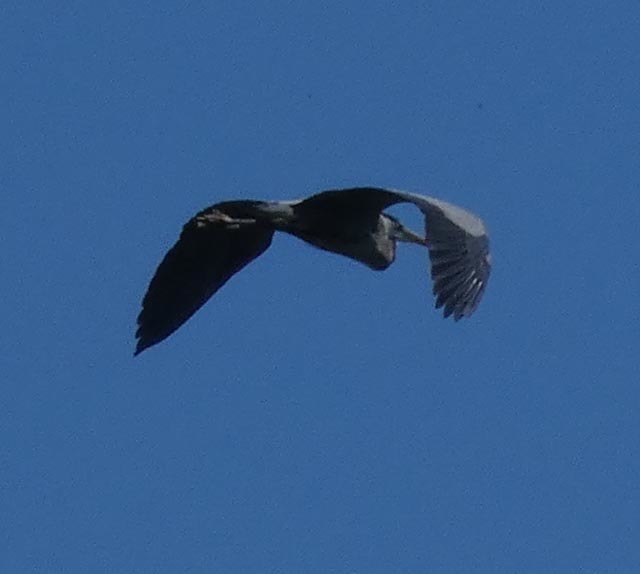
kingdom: Animalia
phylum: Chordata
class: Aves
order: Pelecaniformes
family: Ardeidae
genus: Ardea
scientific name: Ardea herodias
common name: Great blue heron
